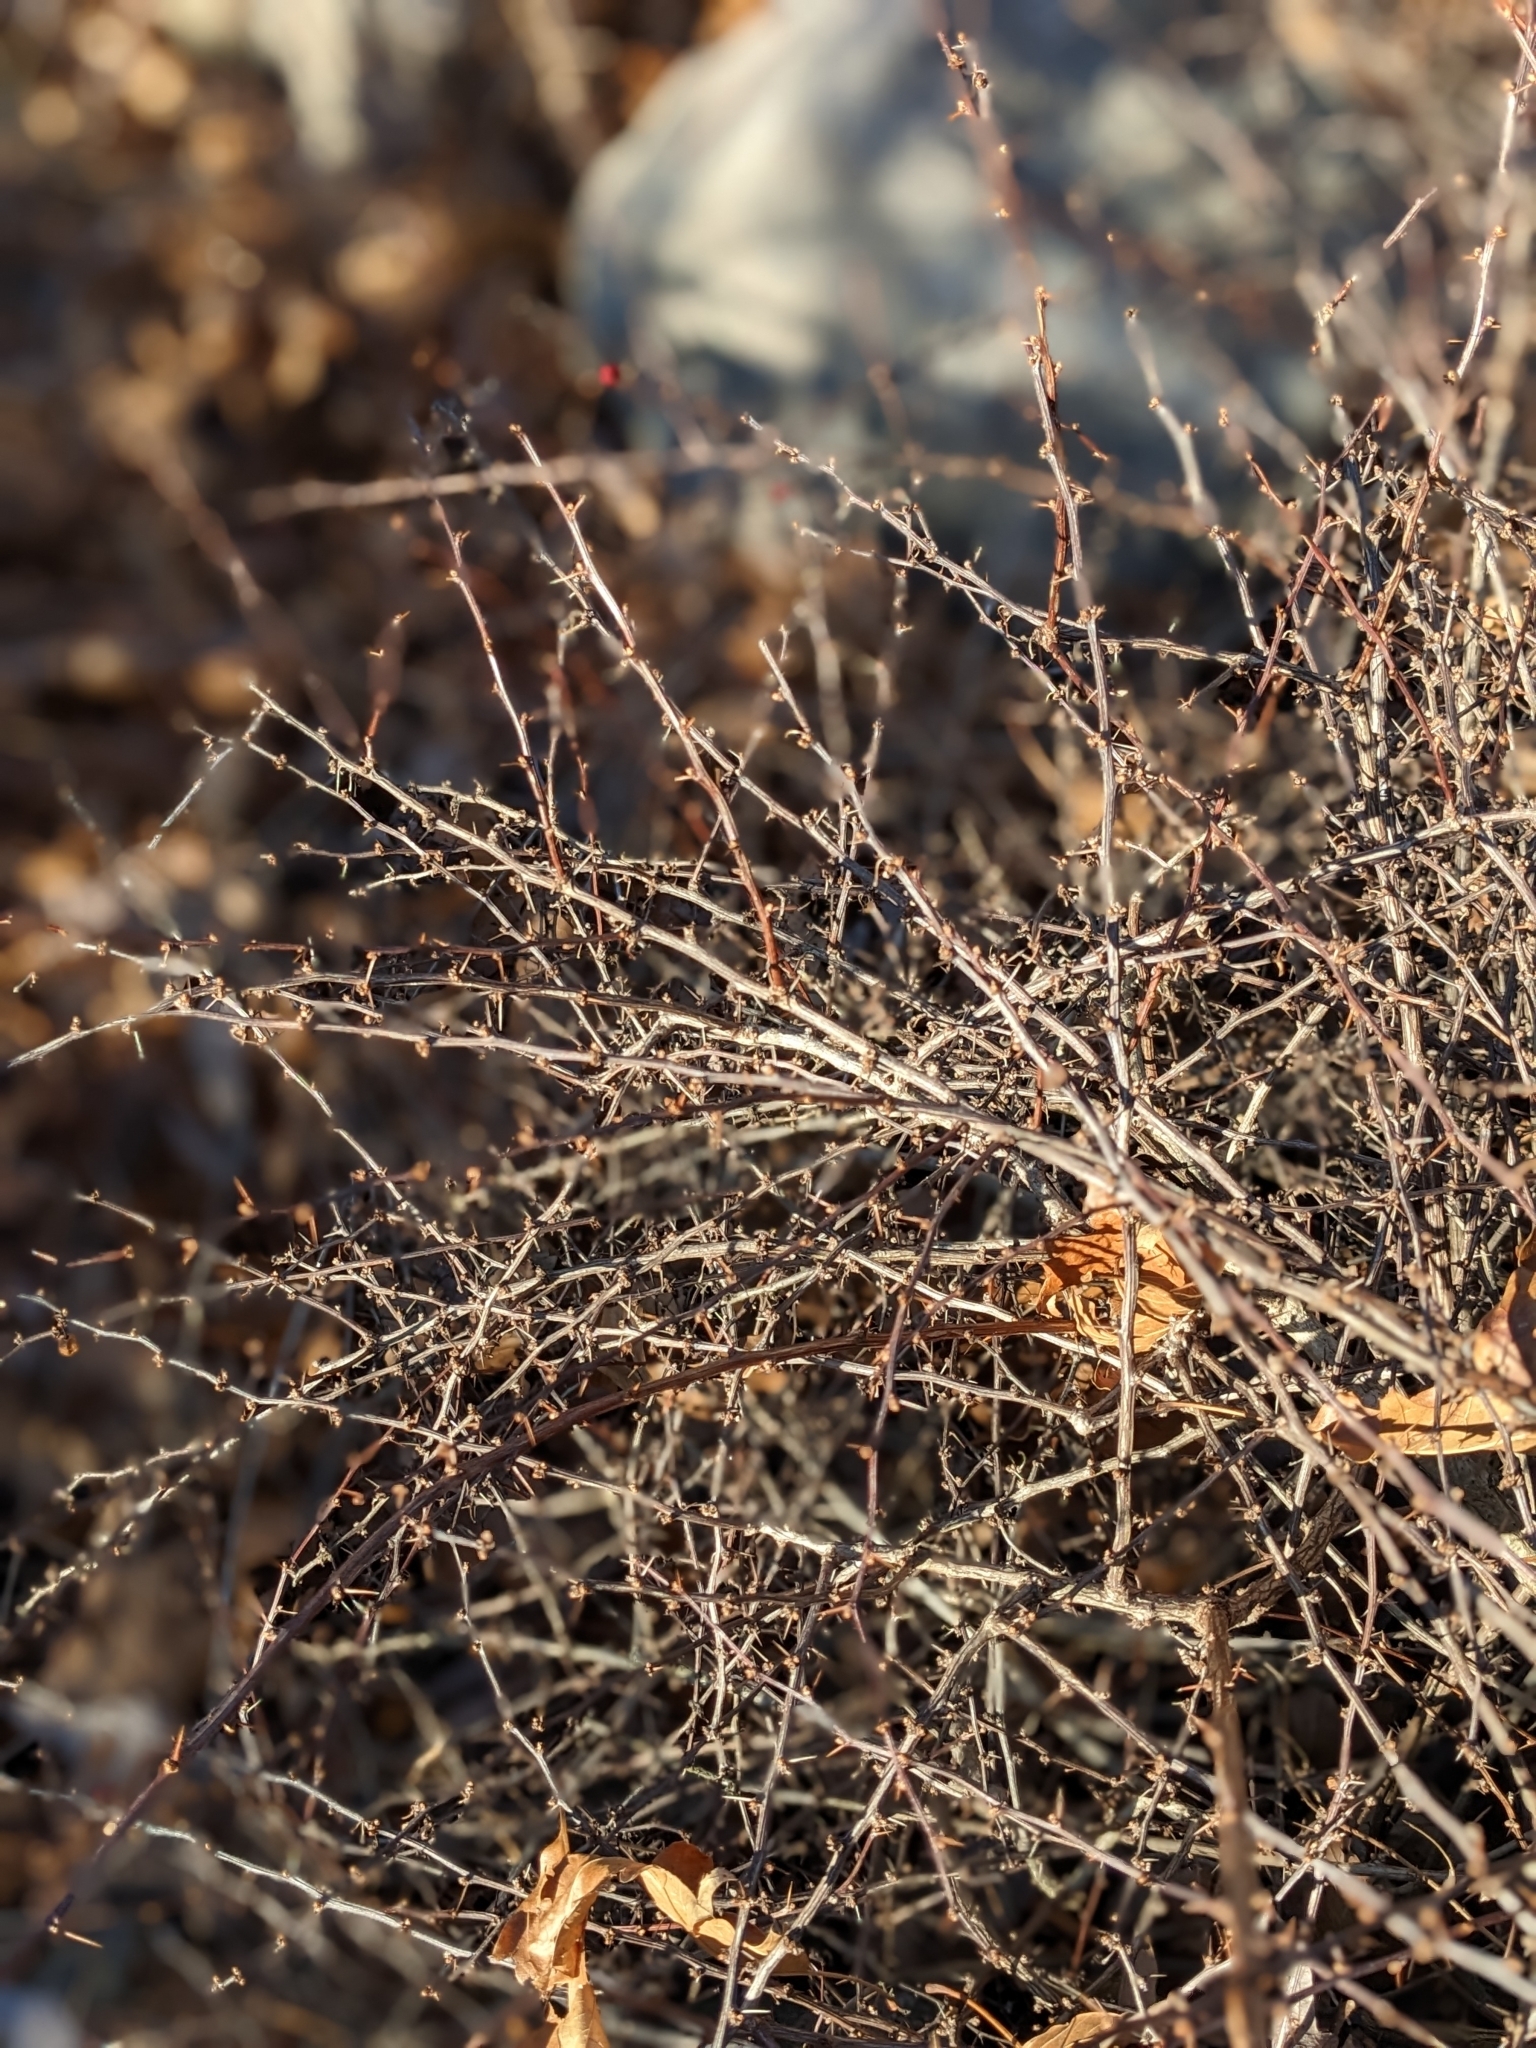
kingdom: Plantae
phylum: Tracheophyta
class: Magnoliopsida
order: Ranunculales
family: Berberidaceae
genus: Berberis
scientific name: Berberis thunbergii
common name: Japanese barberry
